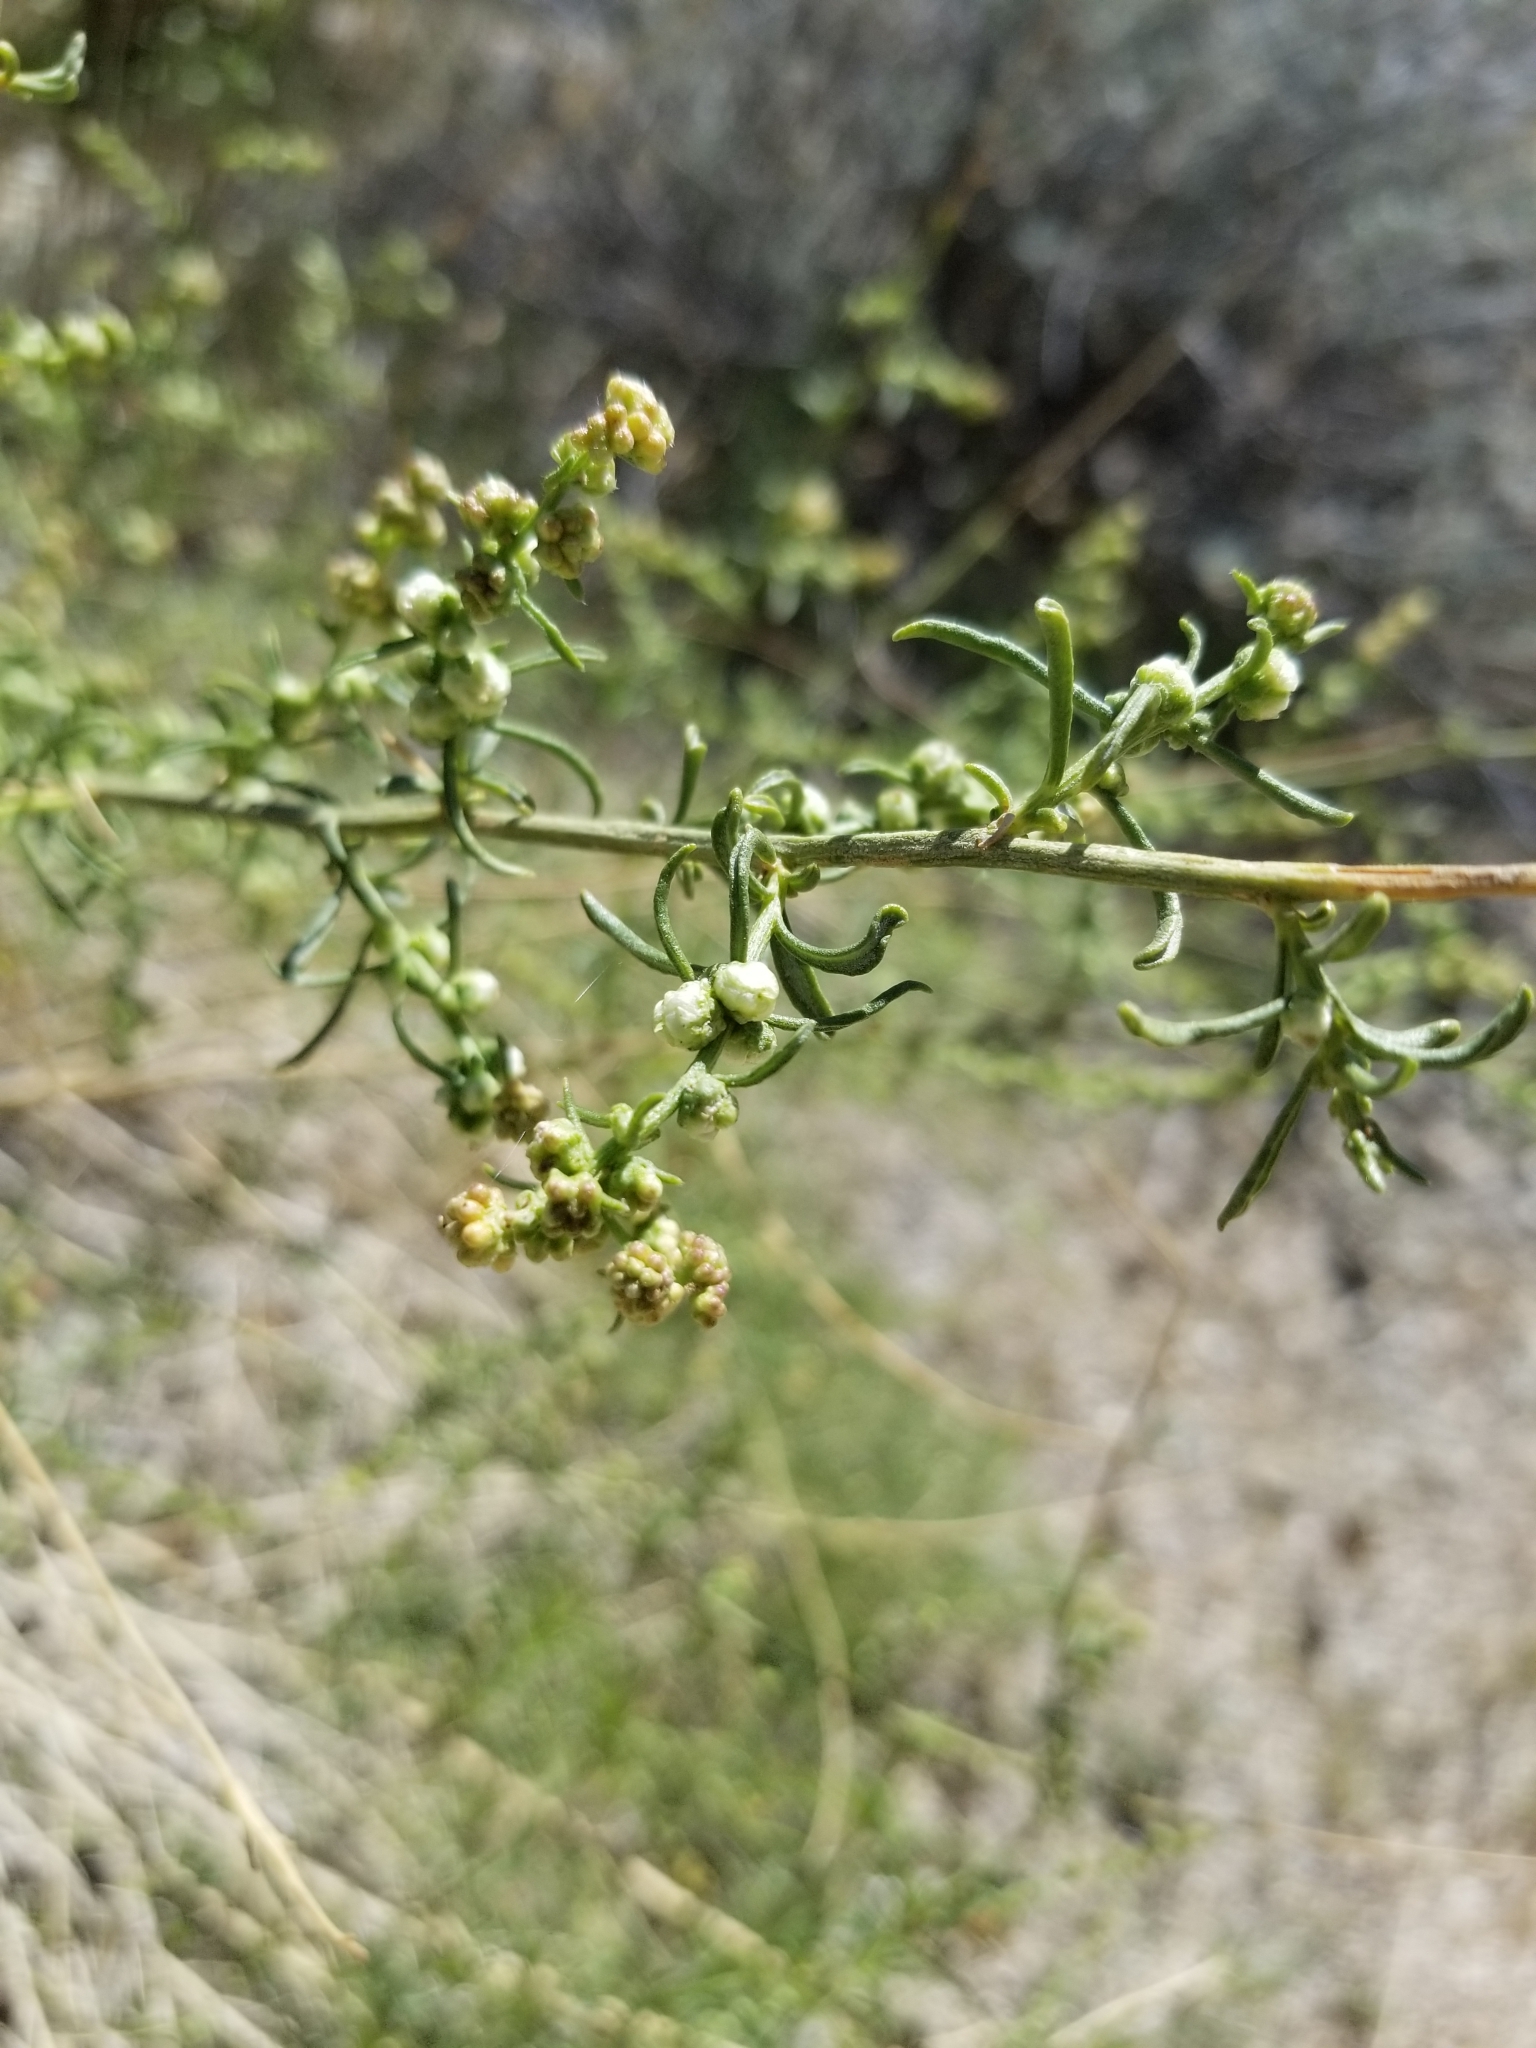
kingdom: Plantae
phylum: Tracheophyta
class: Magnoliopsida
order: Asterales
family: Asteraceae
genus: Artemisia
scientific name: Artemisia dracunculus
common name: Tarragon
